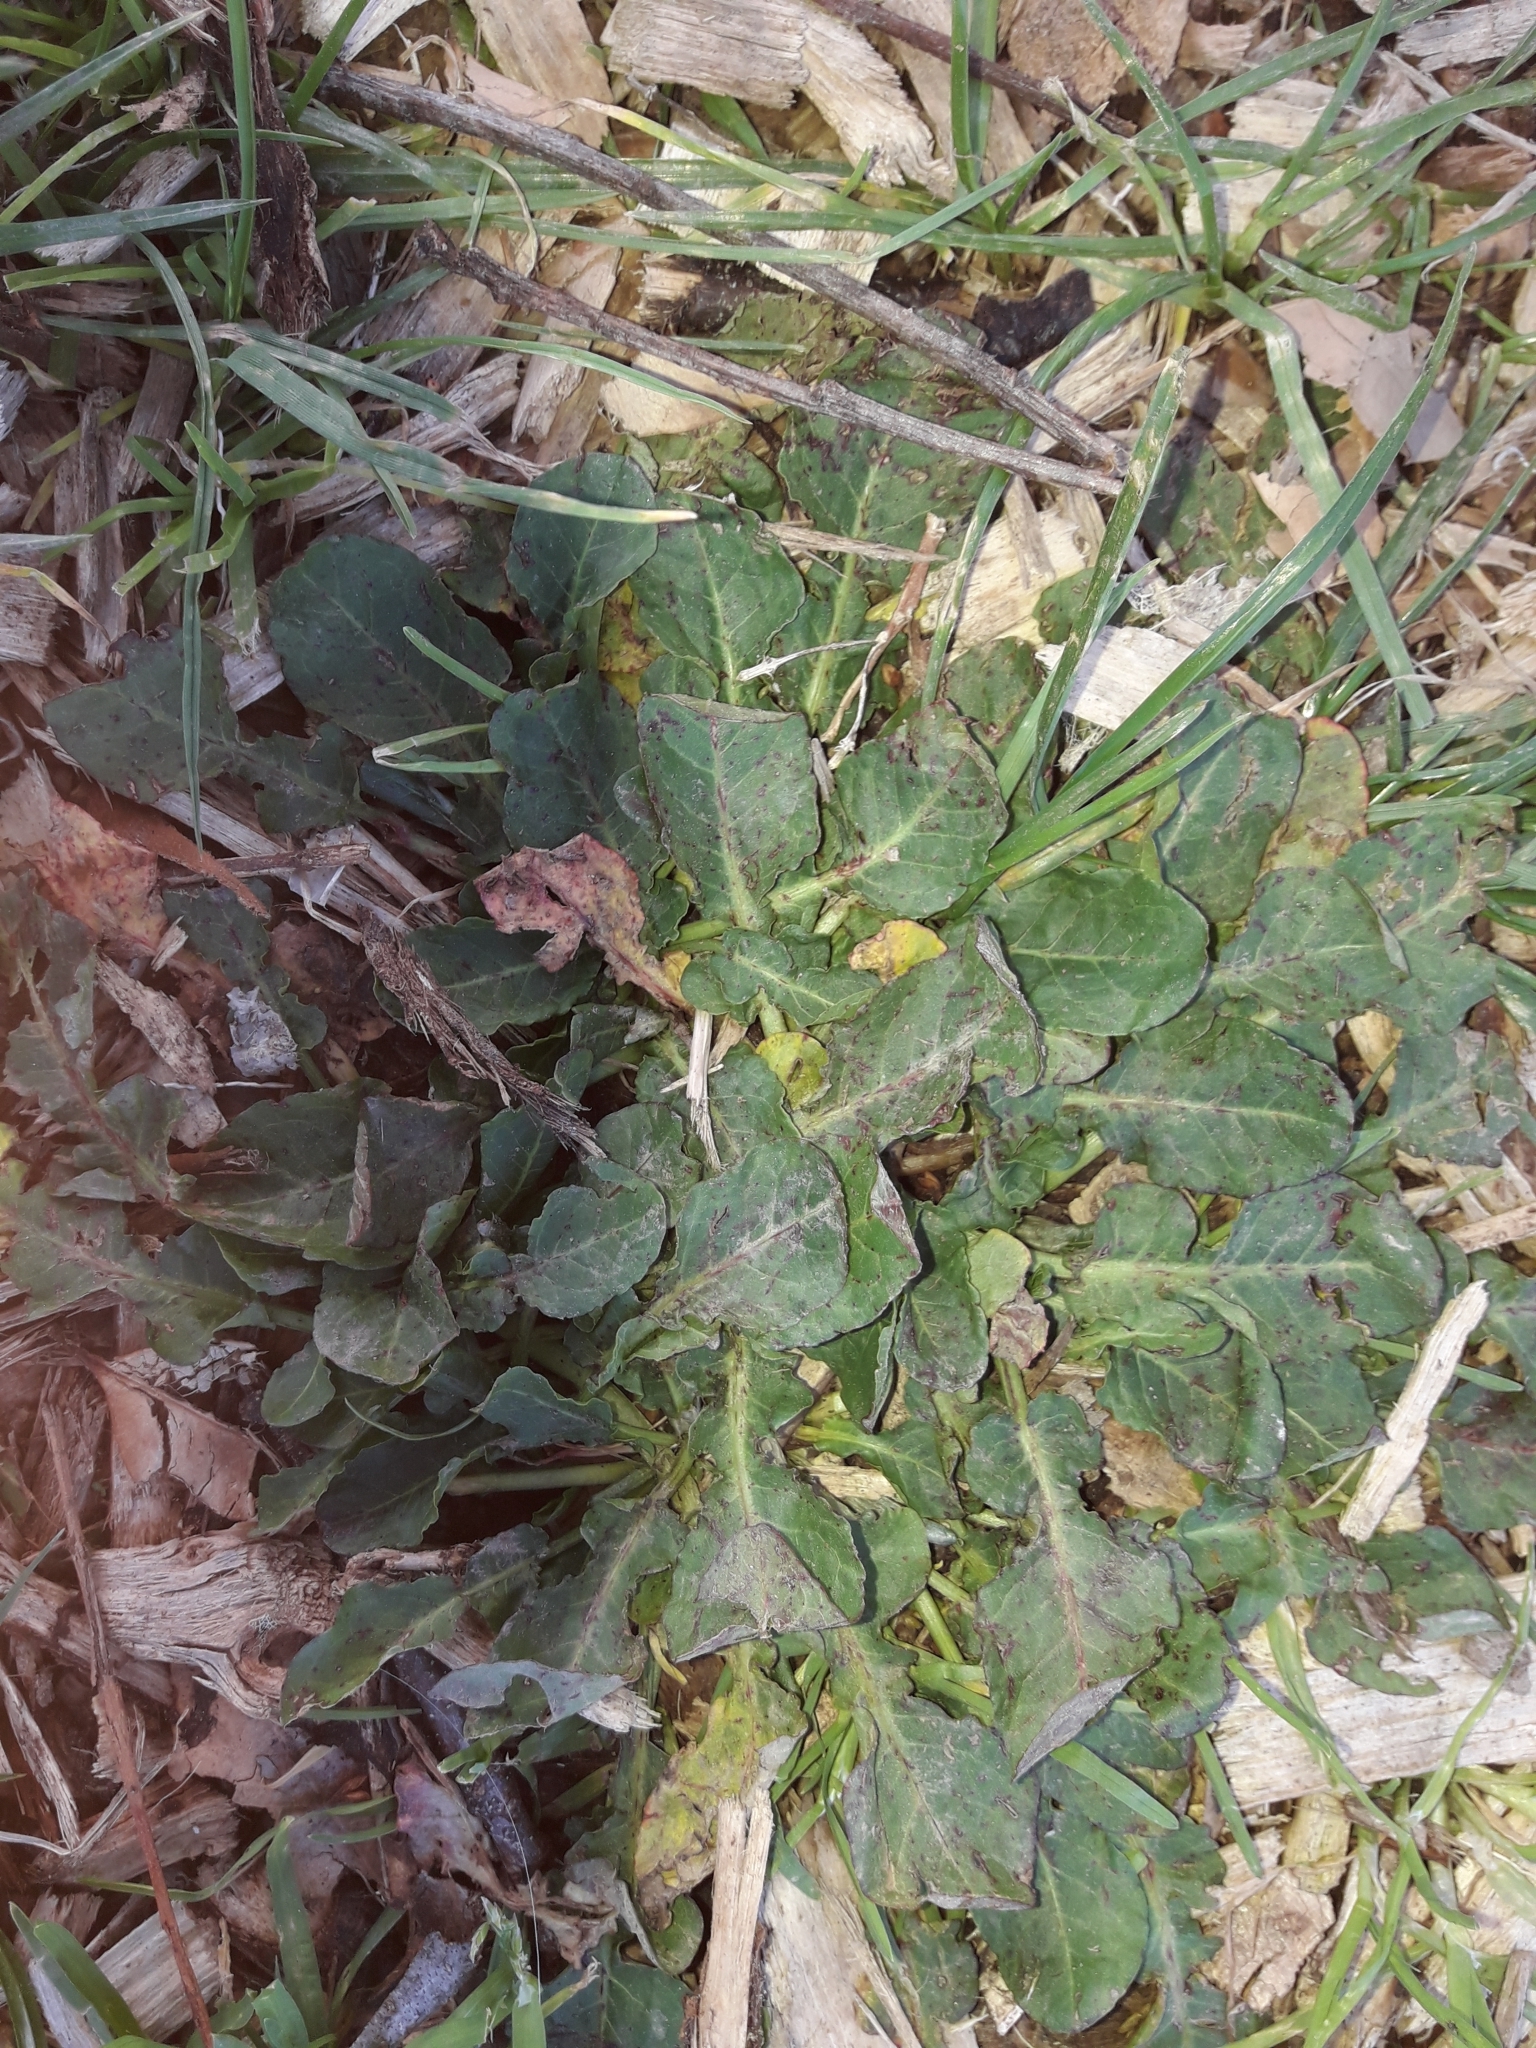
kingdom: Plantae
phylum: Tracheophyta
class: Magnoliopsida
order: Caryophyllales
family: Polygonaceae
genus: Rumex
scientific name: Rumex pulcher
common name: Fiddle dock
